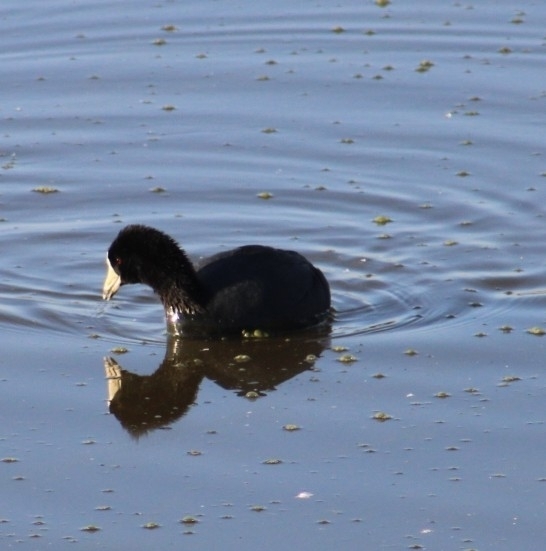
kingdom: Animalia
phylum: Chordata
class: Aves
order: Gruiformes
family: Rallidae
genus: Fulica
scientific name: Fulica americana
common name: American coot
